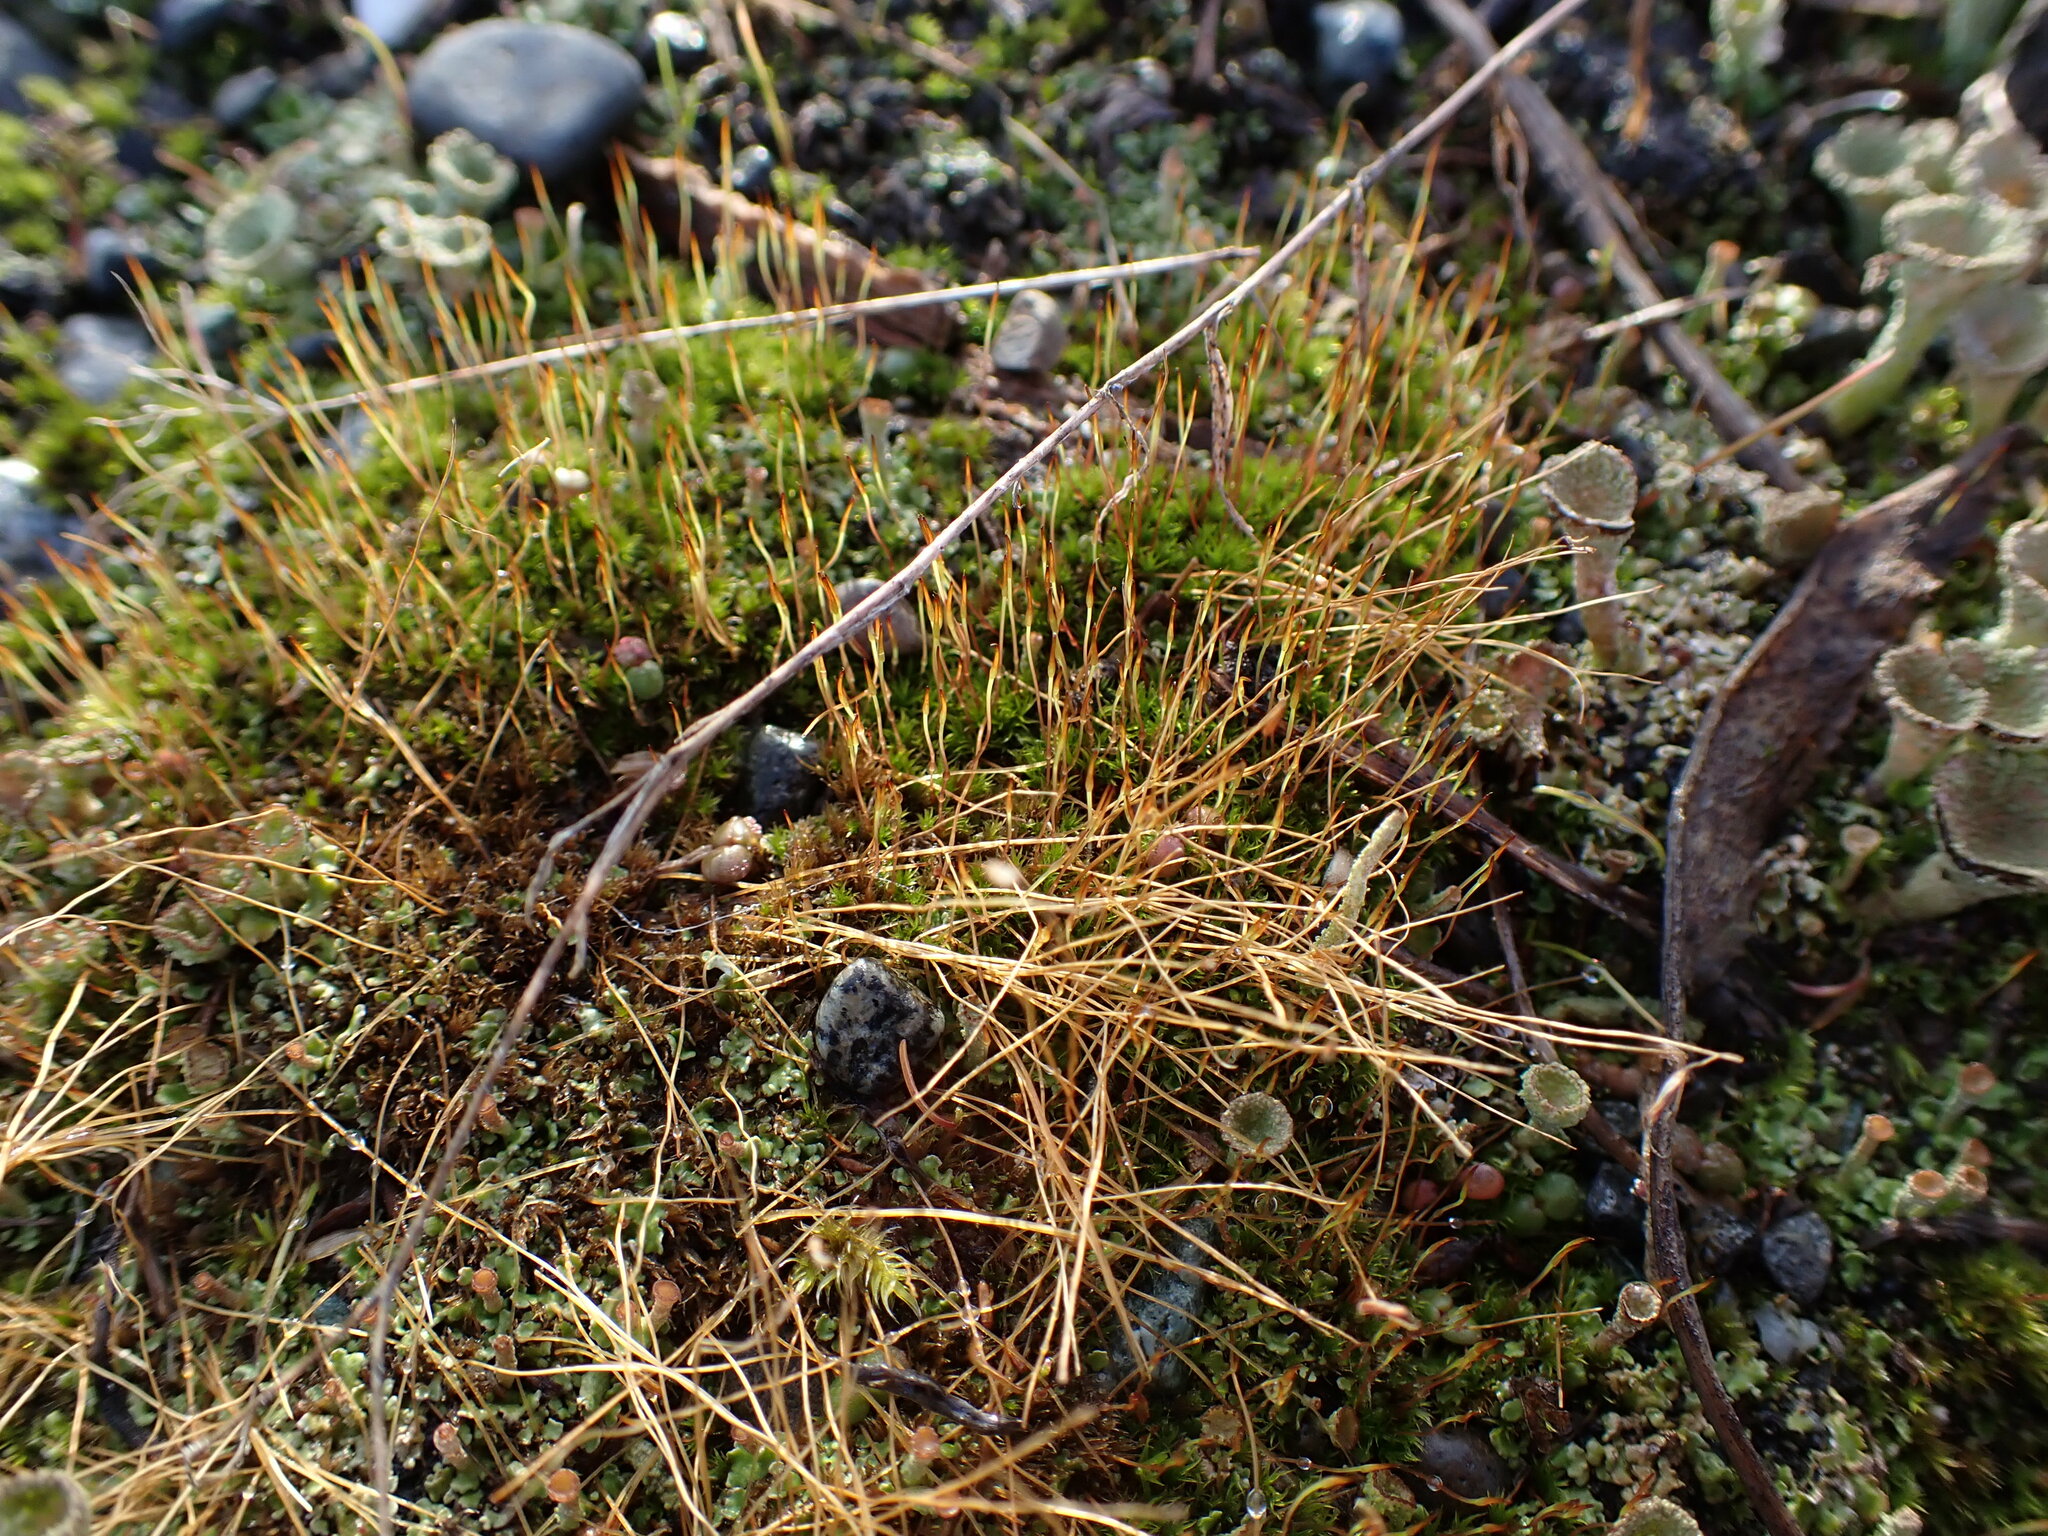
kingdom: Plantae
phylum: Bryophyta
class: Bryopsida
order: Dicranales
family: Ditrichaceae
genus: Ceratodon
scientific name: Ceratodon purpureus
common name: Redshank
